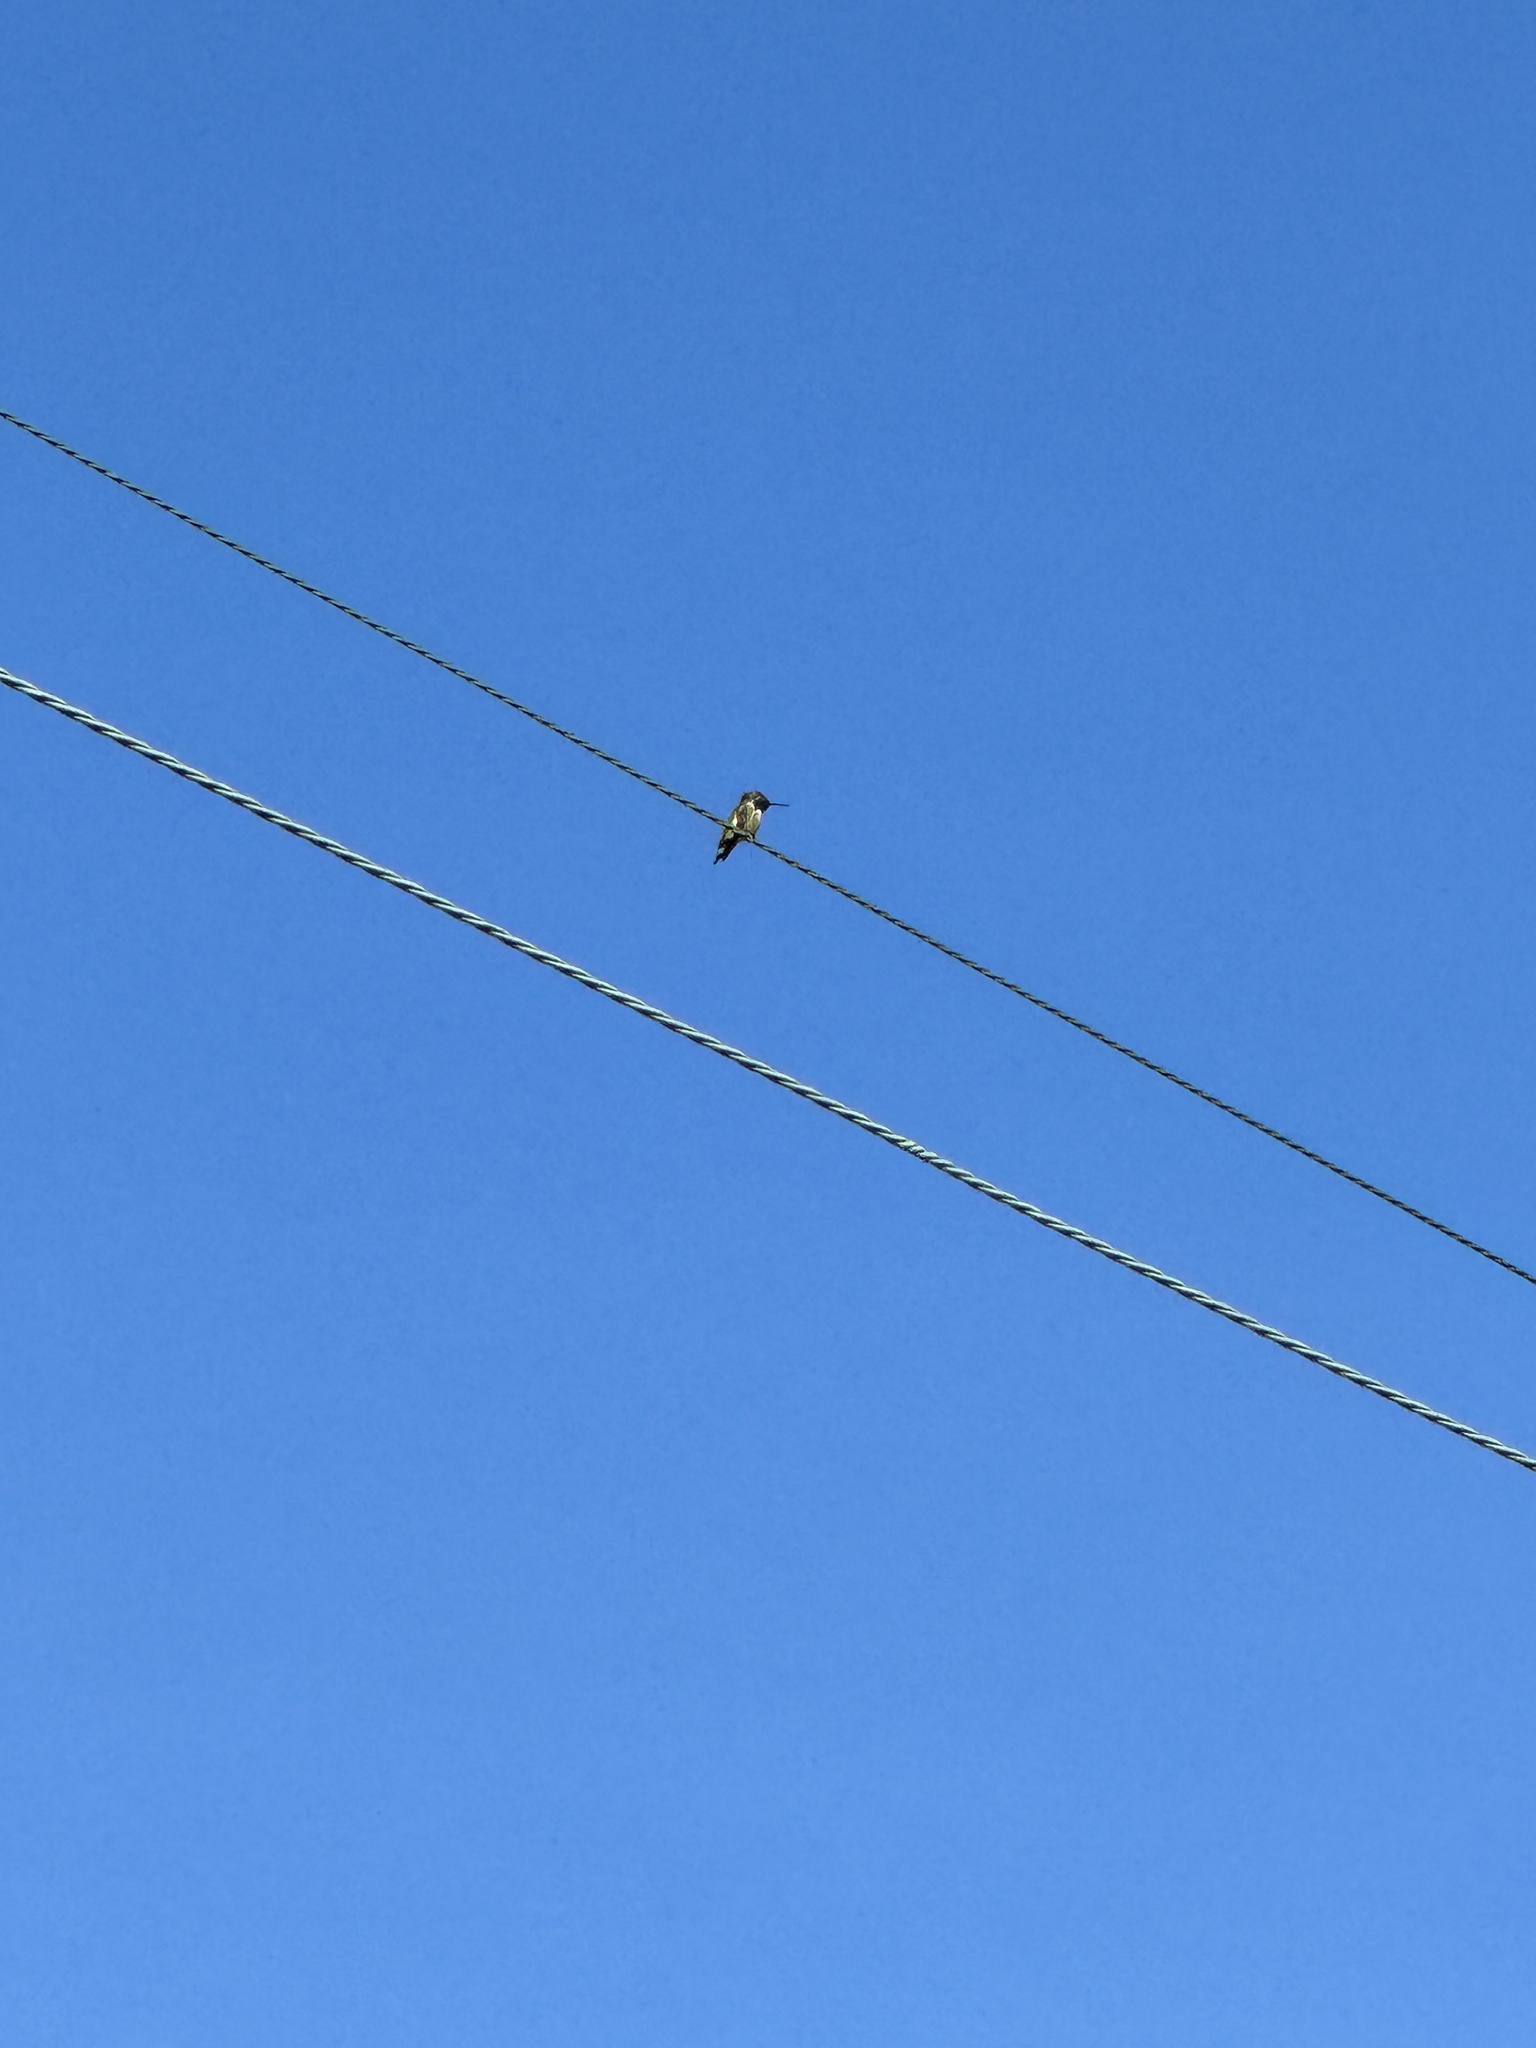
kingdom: Animalia
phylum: Chordata
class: Aves
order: Apodiformes
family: Trochilidae
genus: Calypte
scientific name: Calypte anna
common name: Anna's hummingbird
